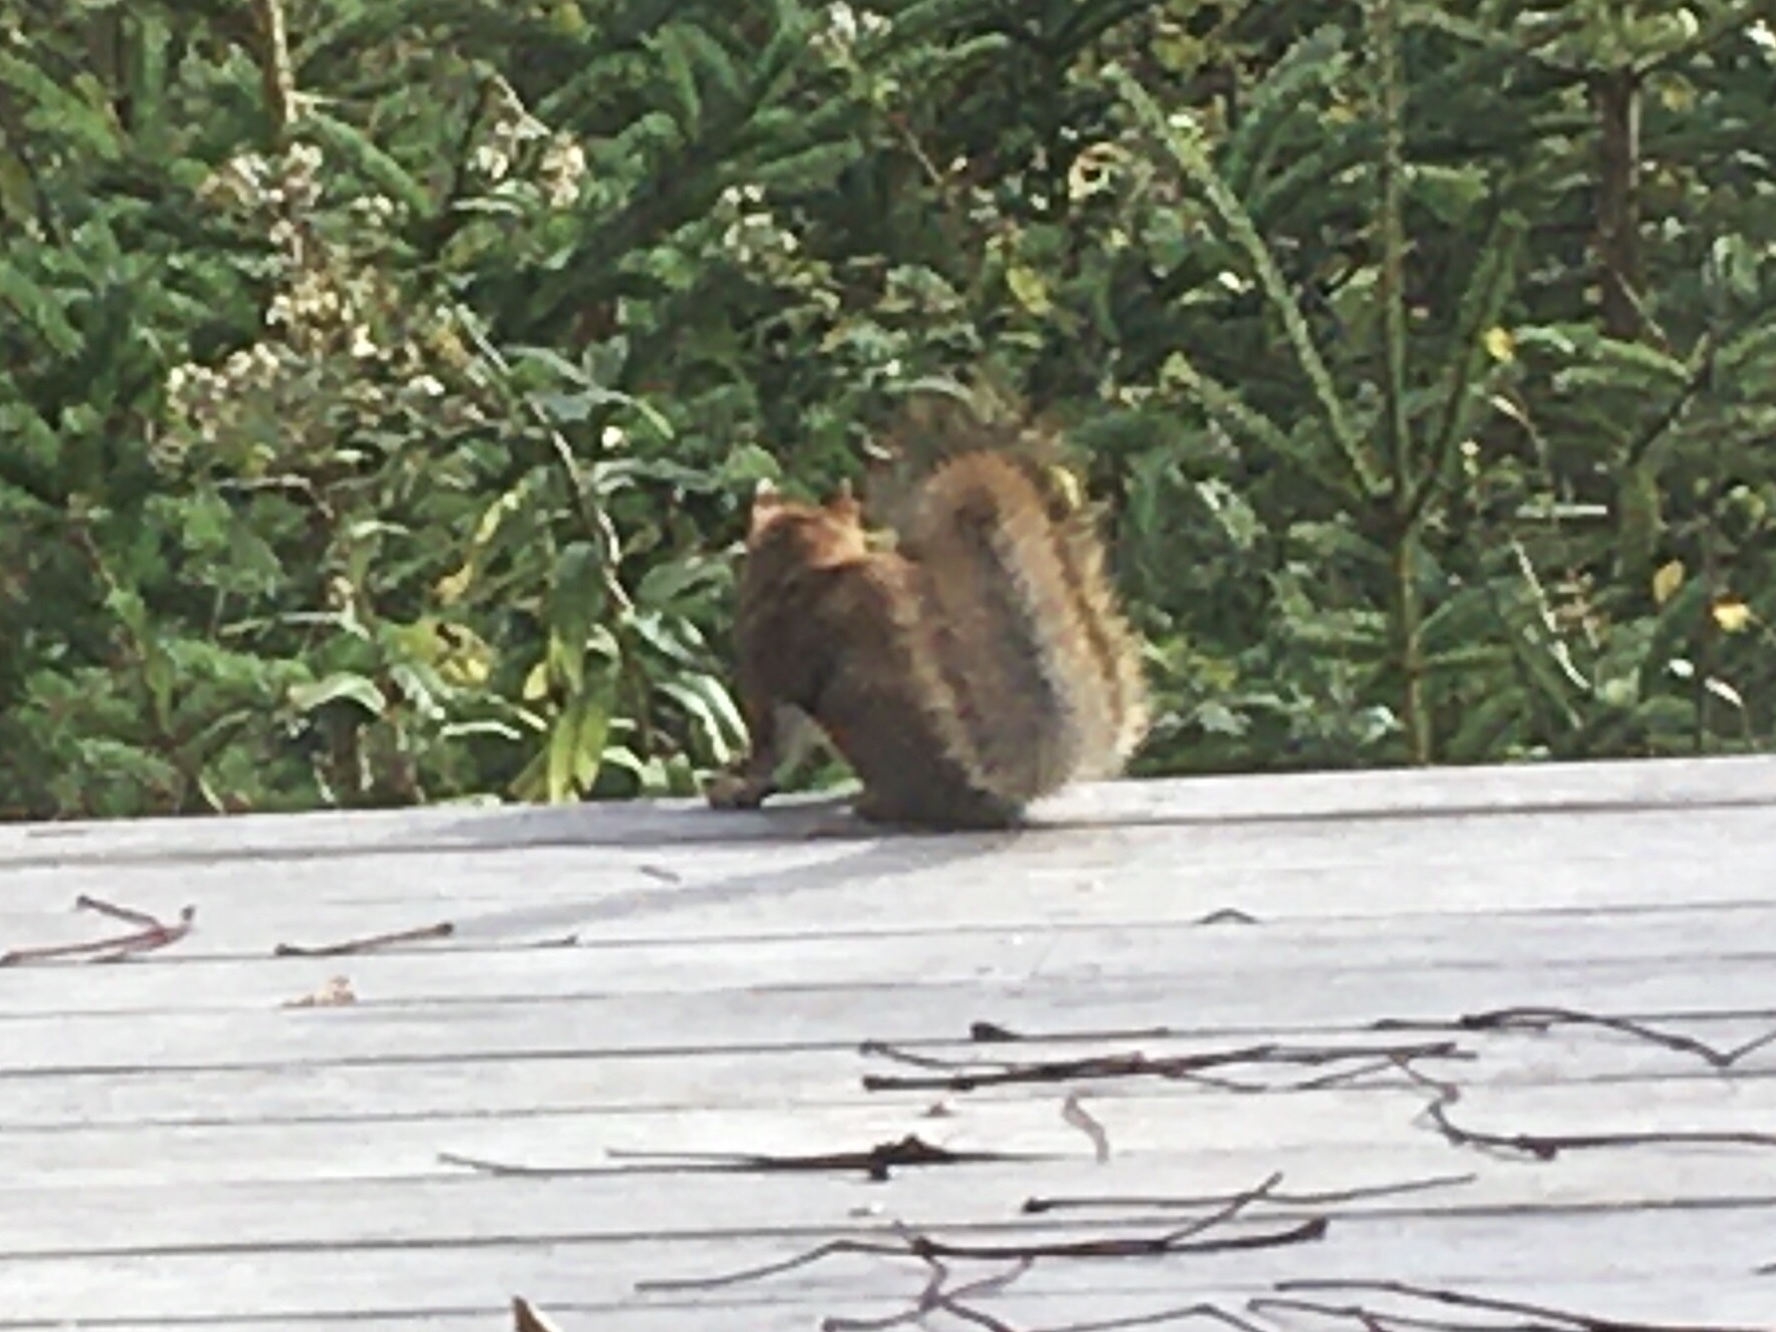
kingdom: Animalia
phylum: Chordata
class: Mammalia
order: Rodentia
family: Sciuridae
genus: Tamiasciurus
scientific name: Tamiasciurus hudsonicus
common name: Red squirrel
